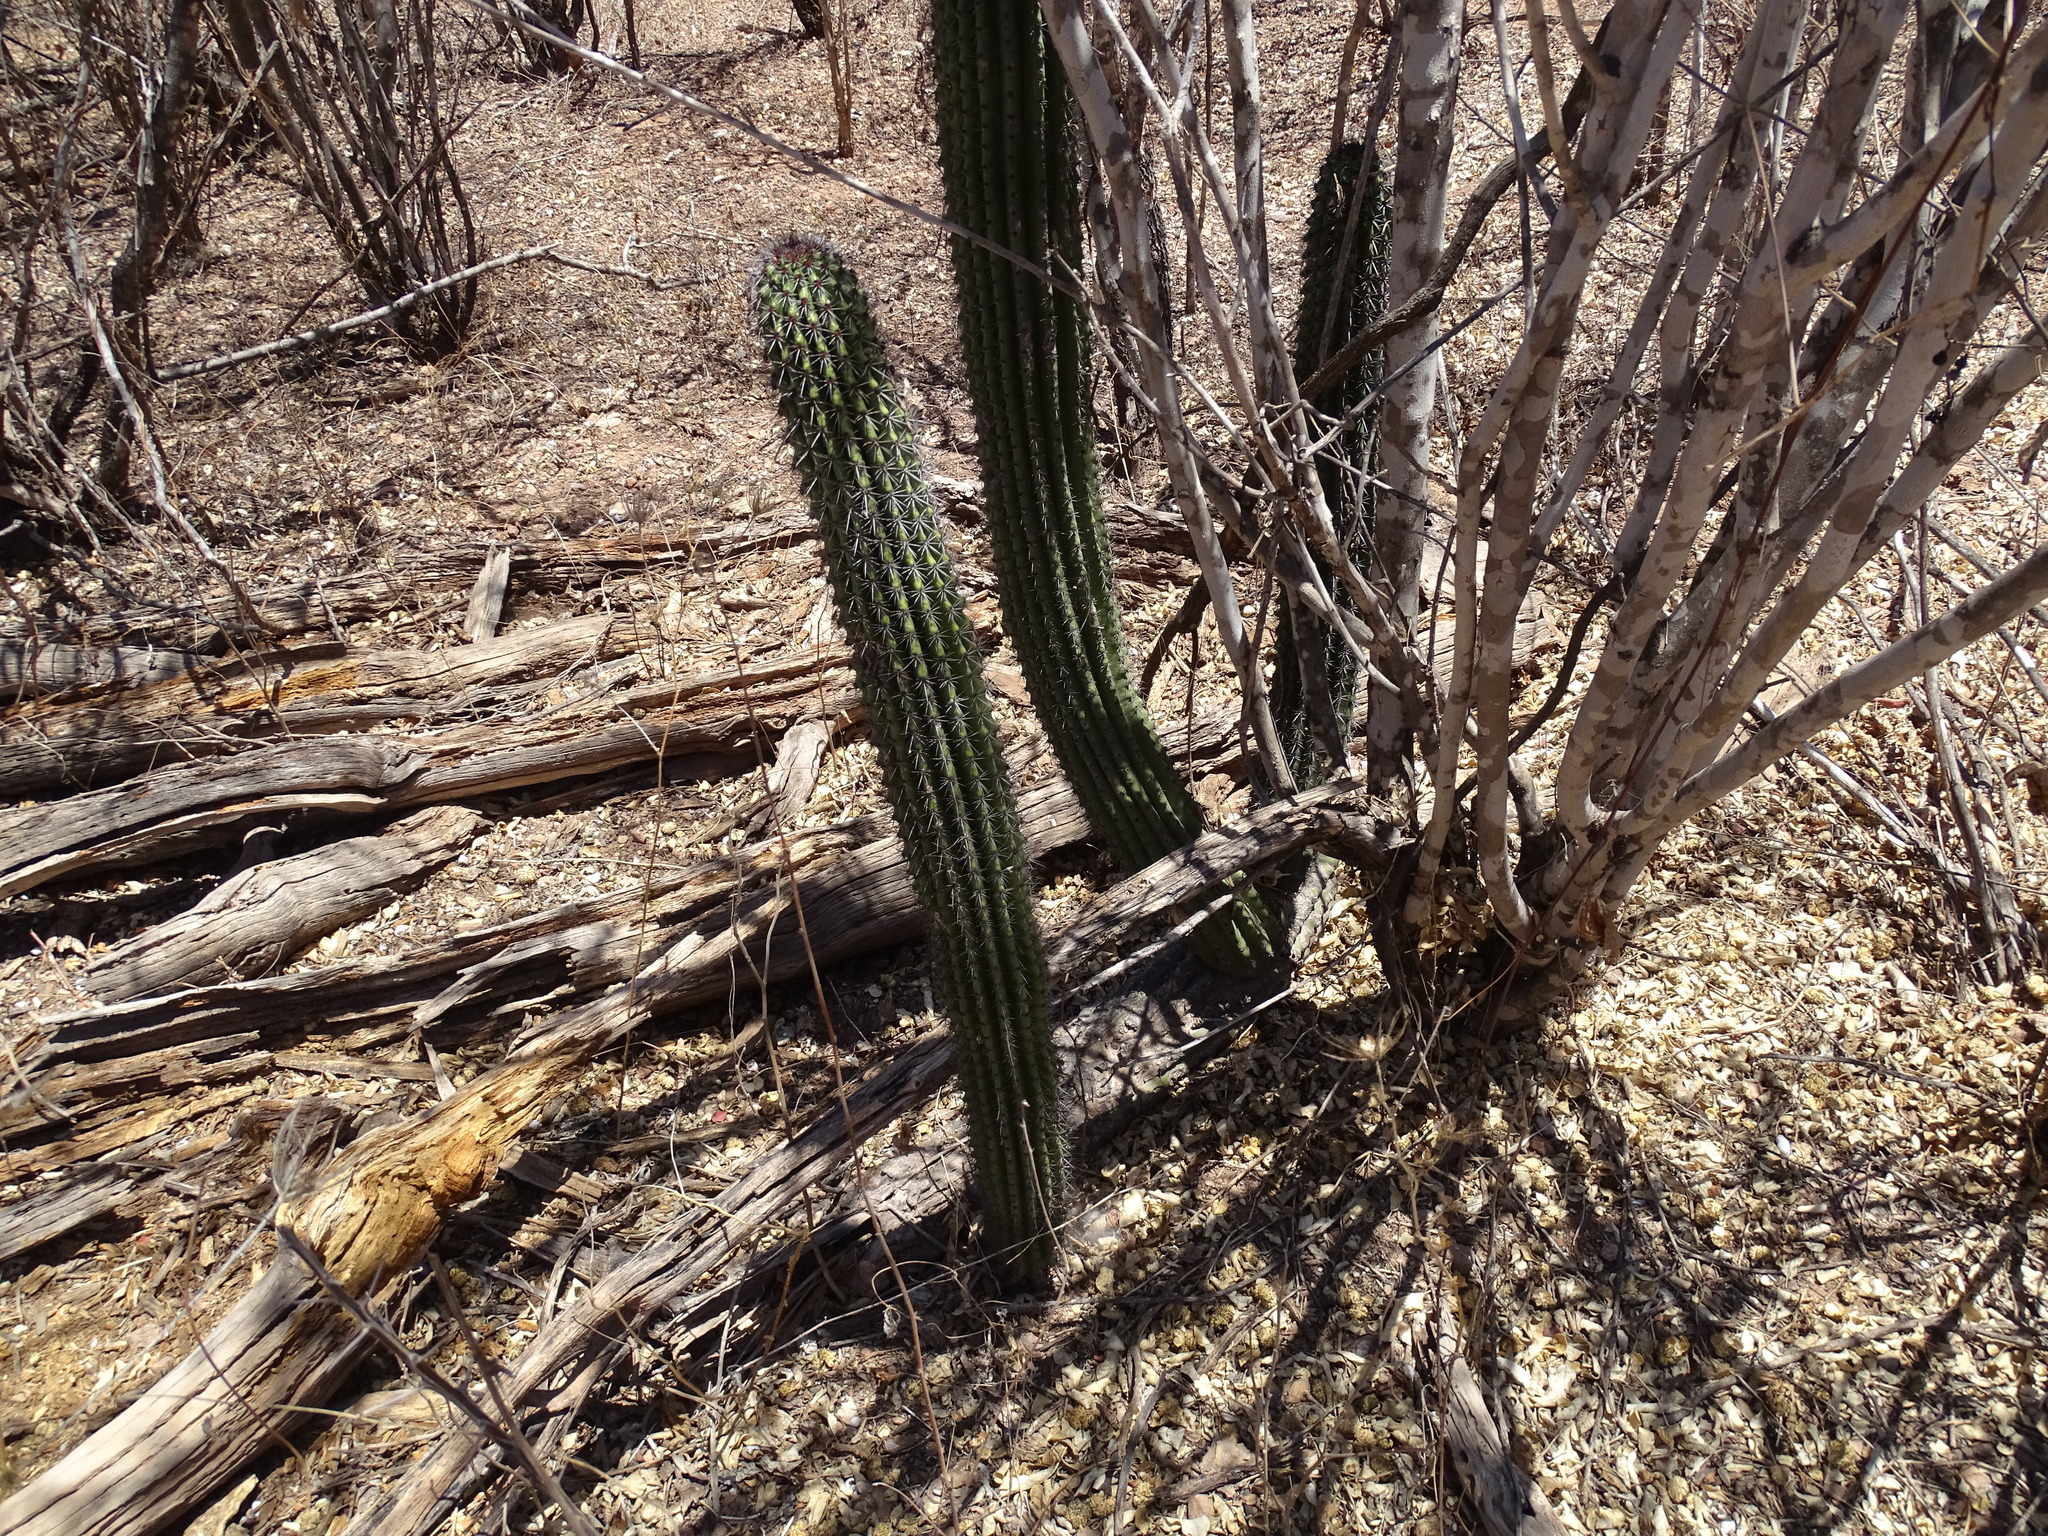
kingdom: Plantae
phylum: Tracheophyta
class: Magnoliopsida
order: Caryophyllales
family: Cactaceae
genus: Stenocereus
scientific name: Stenocereus thurberi
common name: Organ pipe cactus
